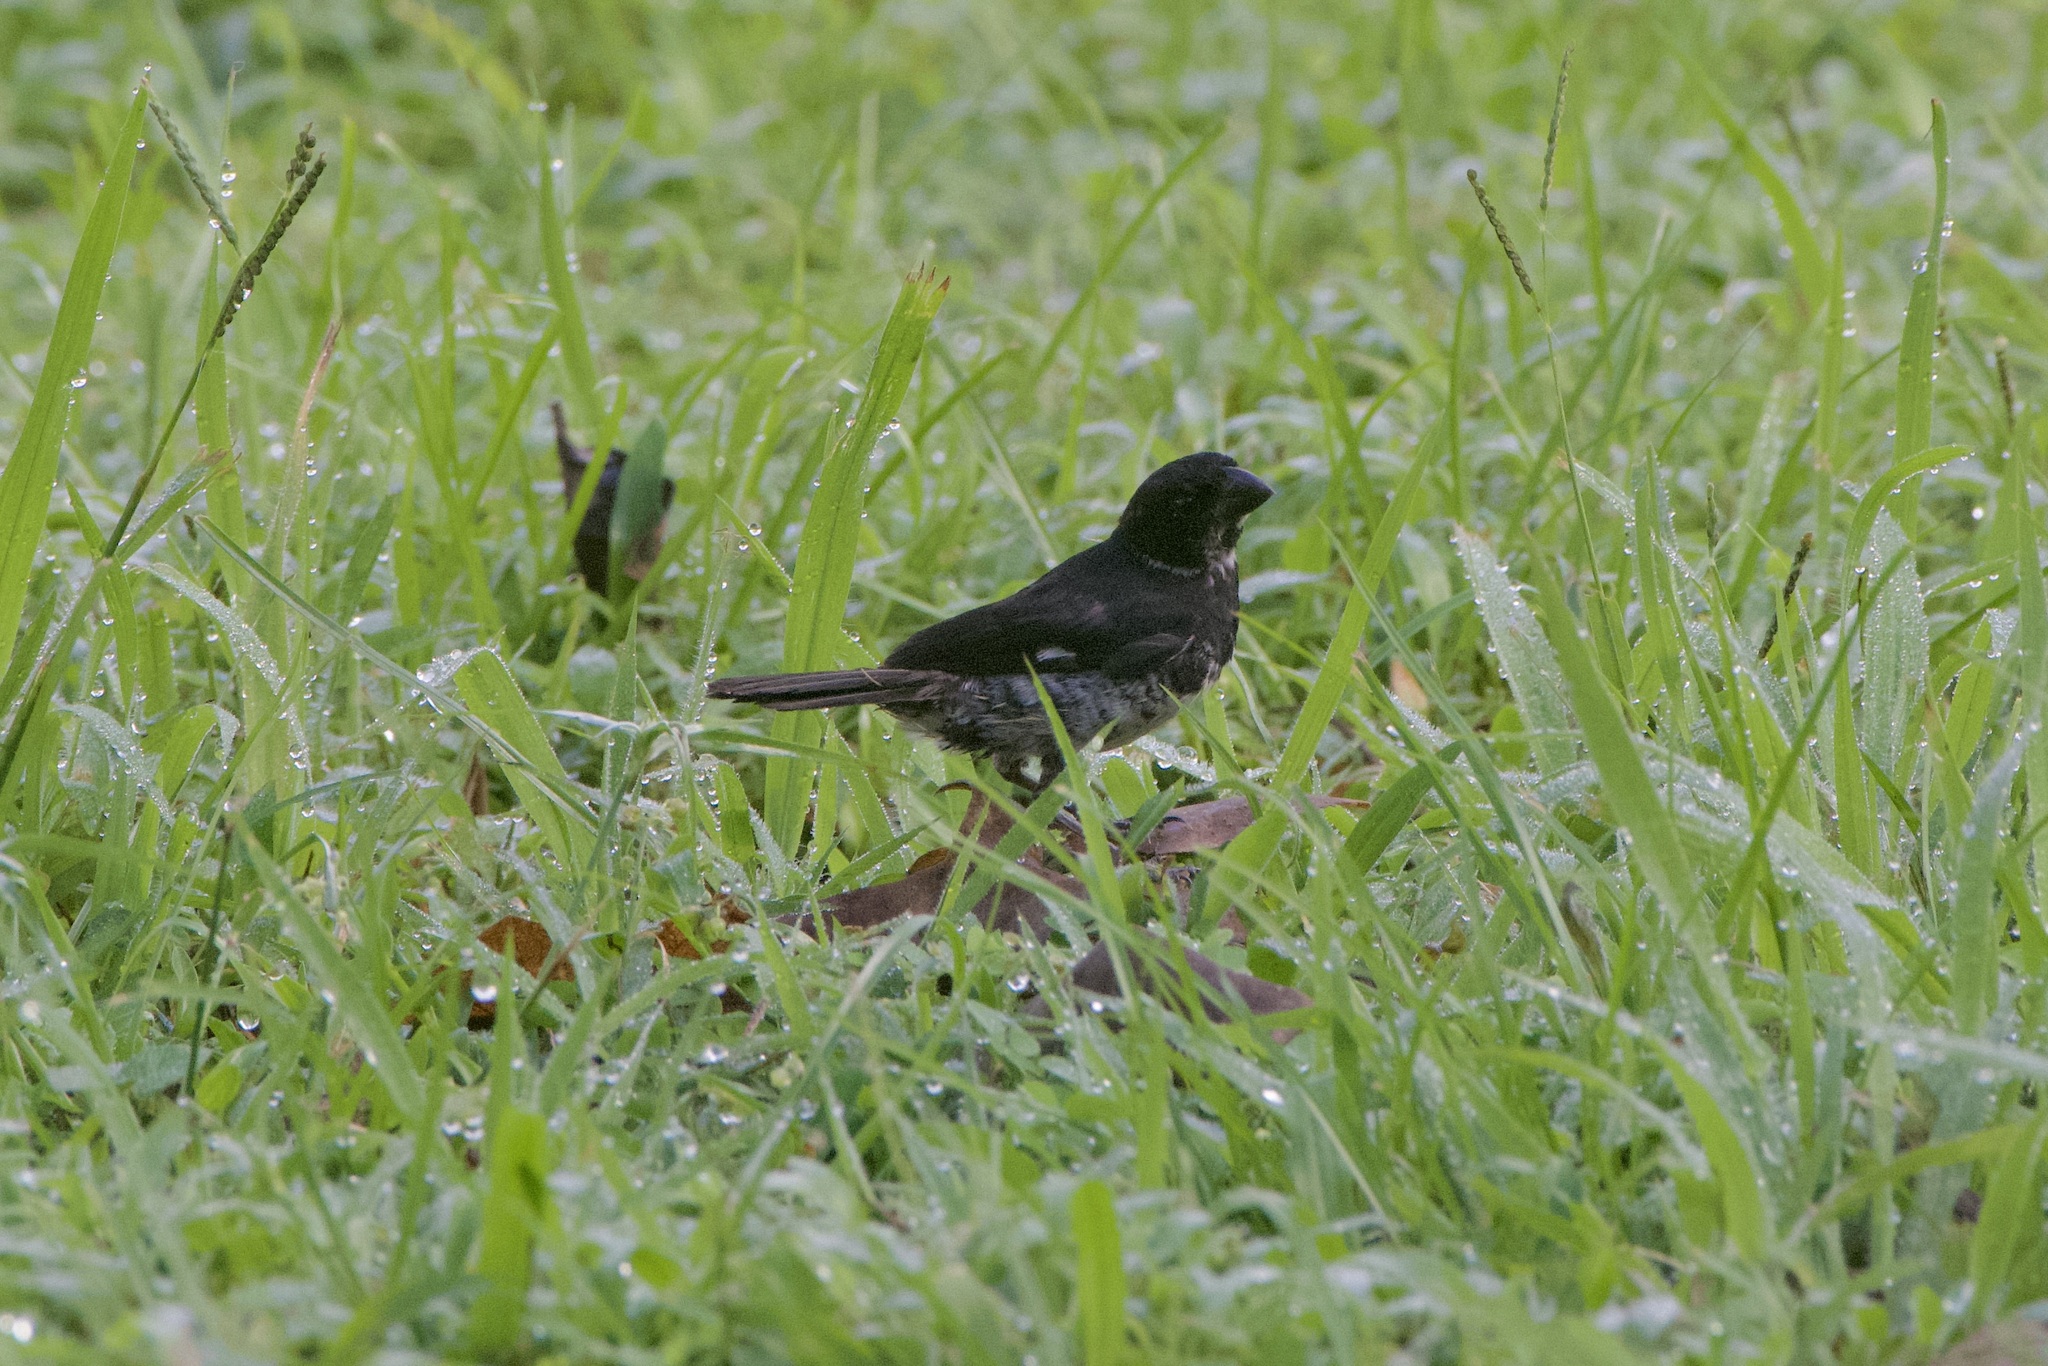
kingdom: Animalia
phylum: Chordata
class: Aves
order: Passeriformes
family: Thraupidae
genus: Sporophila
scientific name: Sporophila corvina
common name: Variable seedeater
